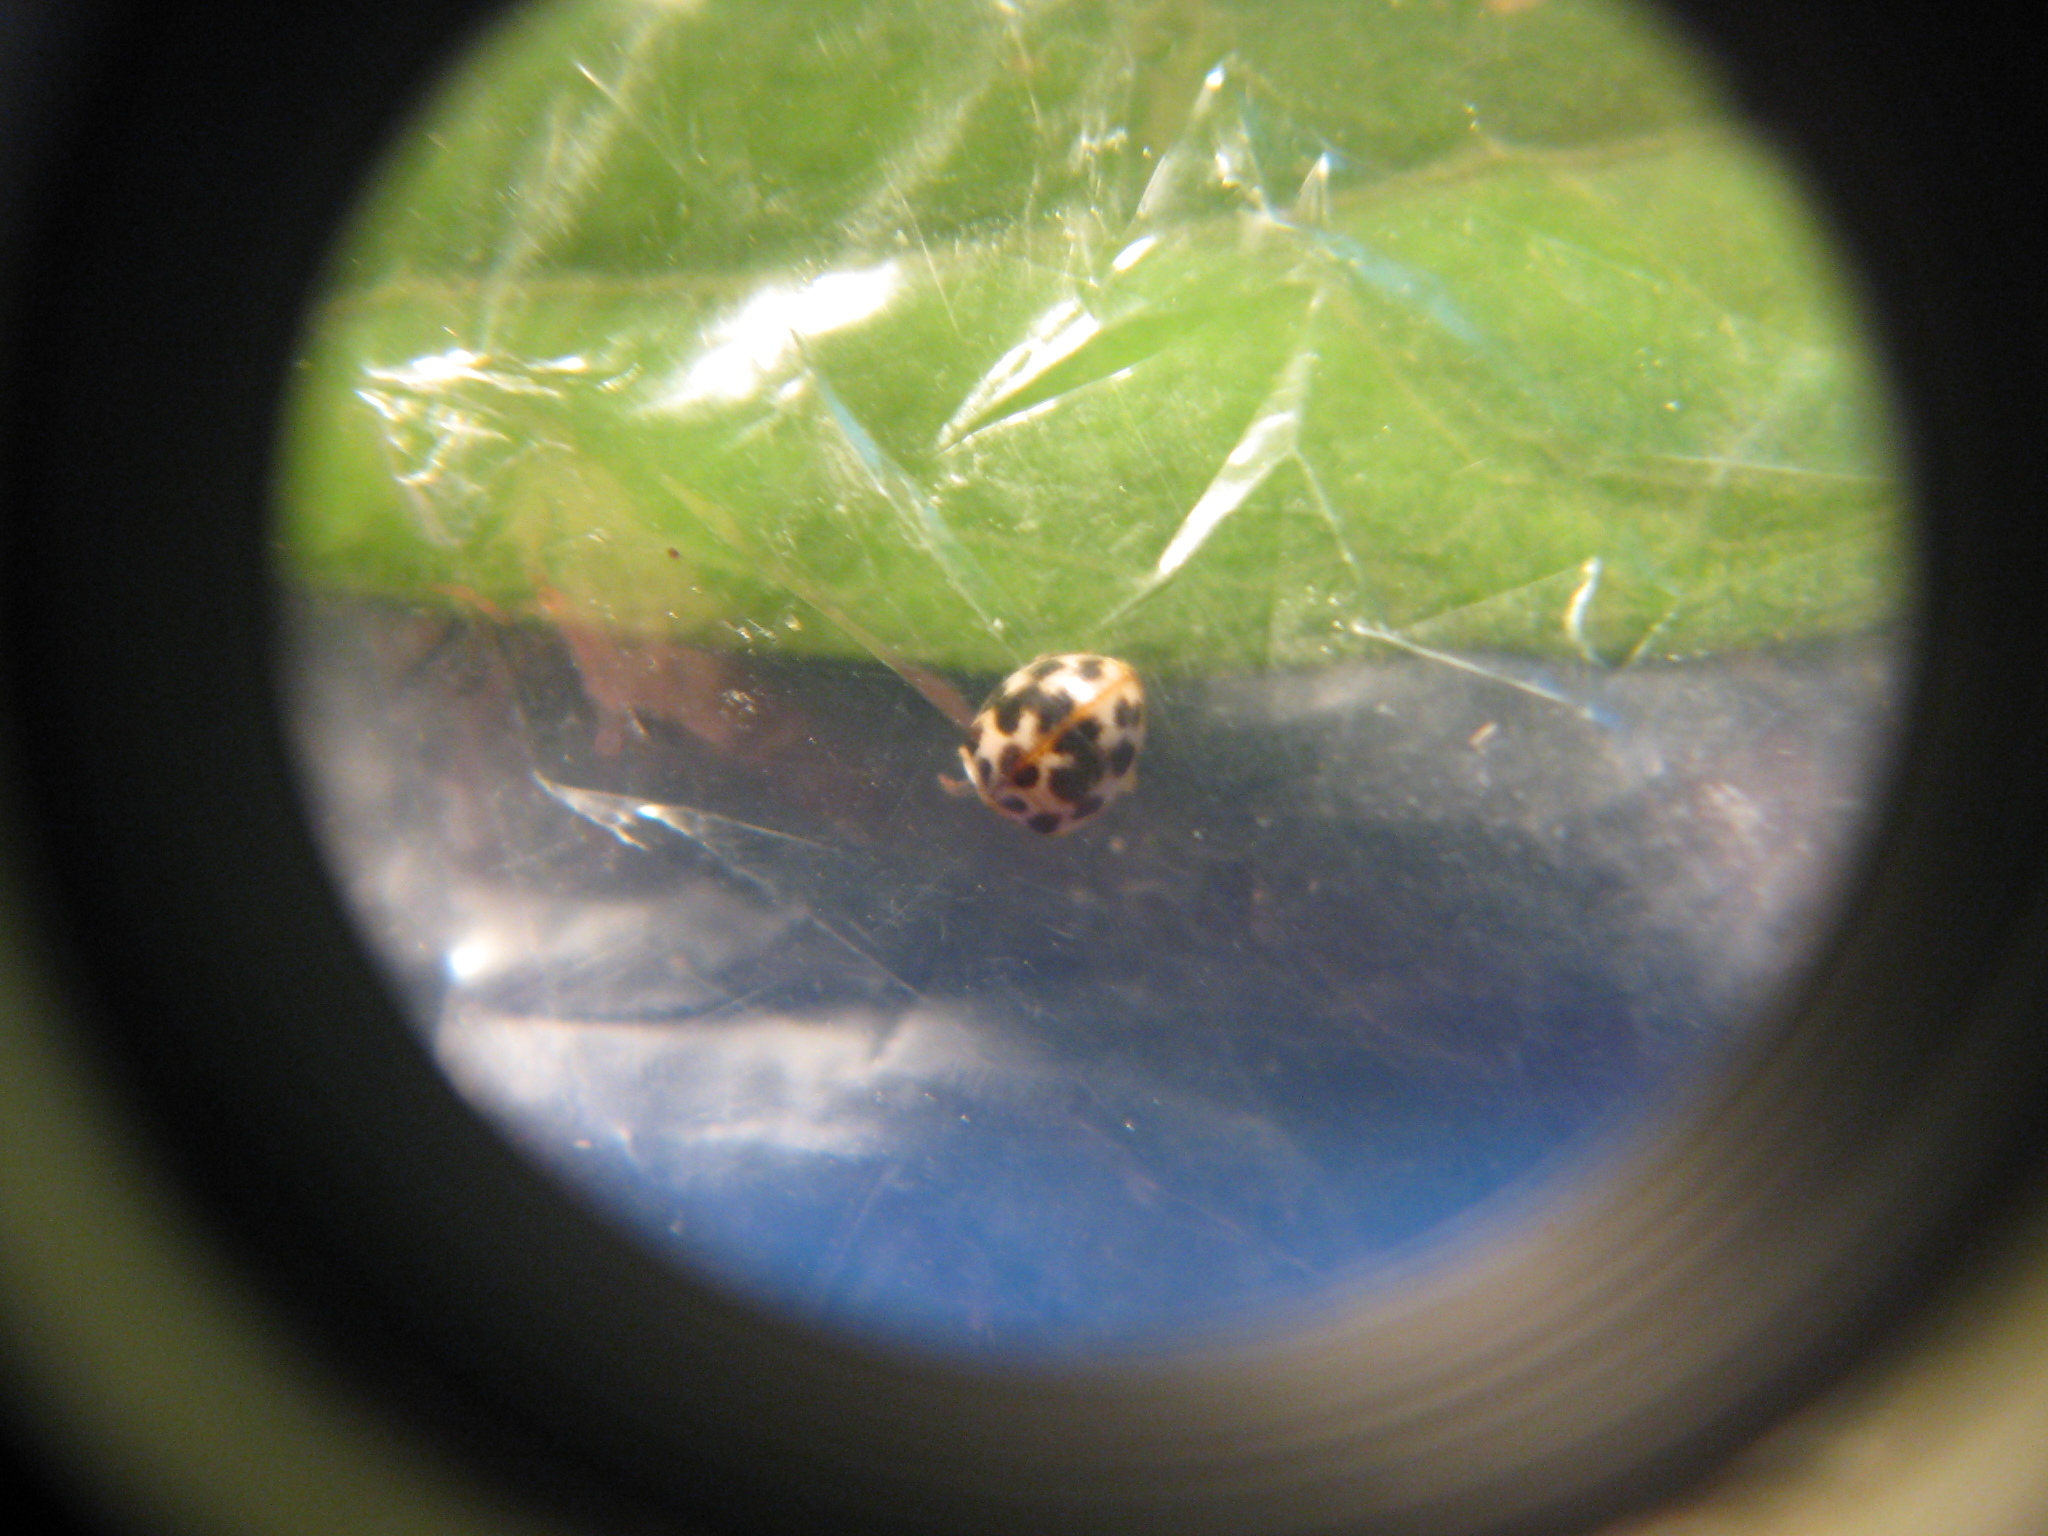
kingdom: Animalia
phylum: Arthropoda
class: Insecta
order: Coleoptera
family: Coccinellidae
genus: Psyllobora
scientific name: Psyllobora vigintimaculata
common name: Ladybird beetle
